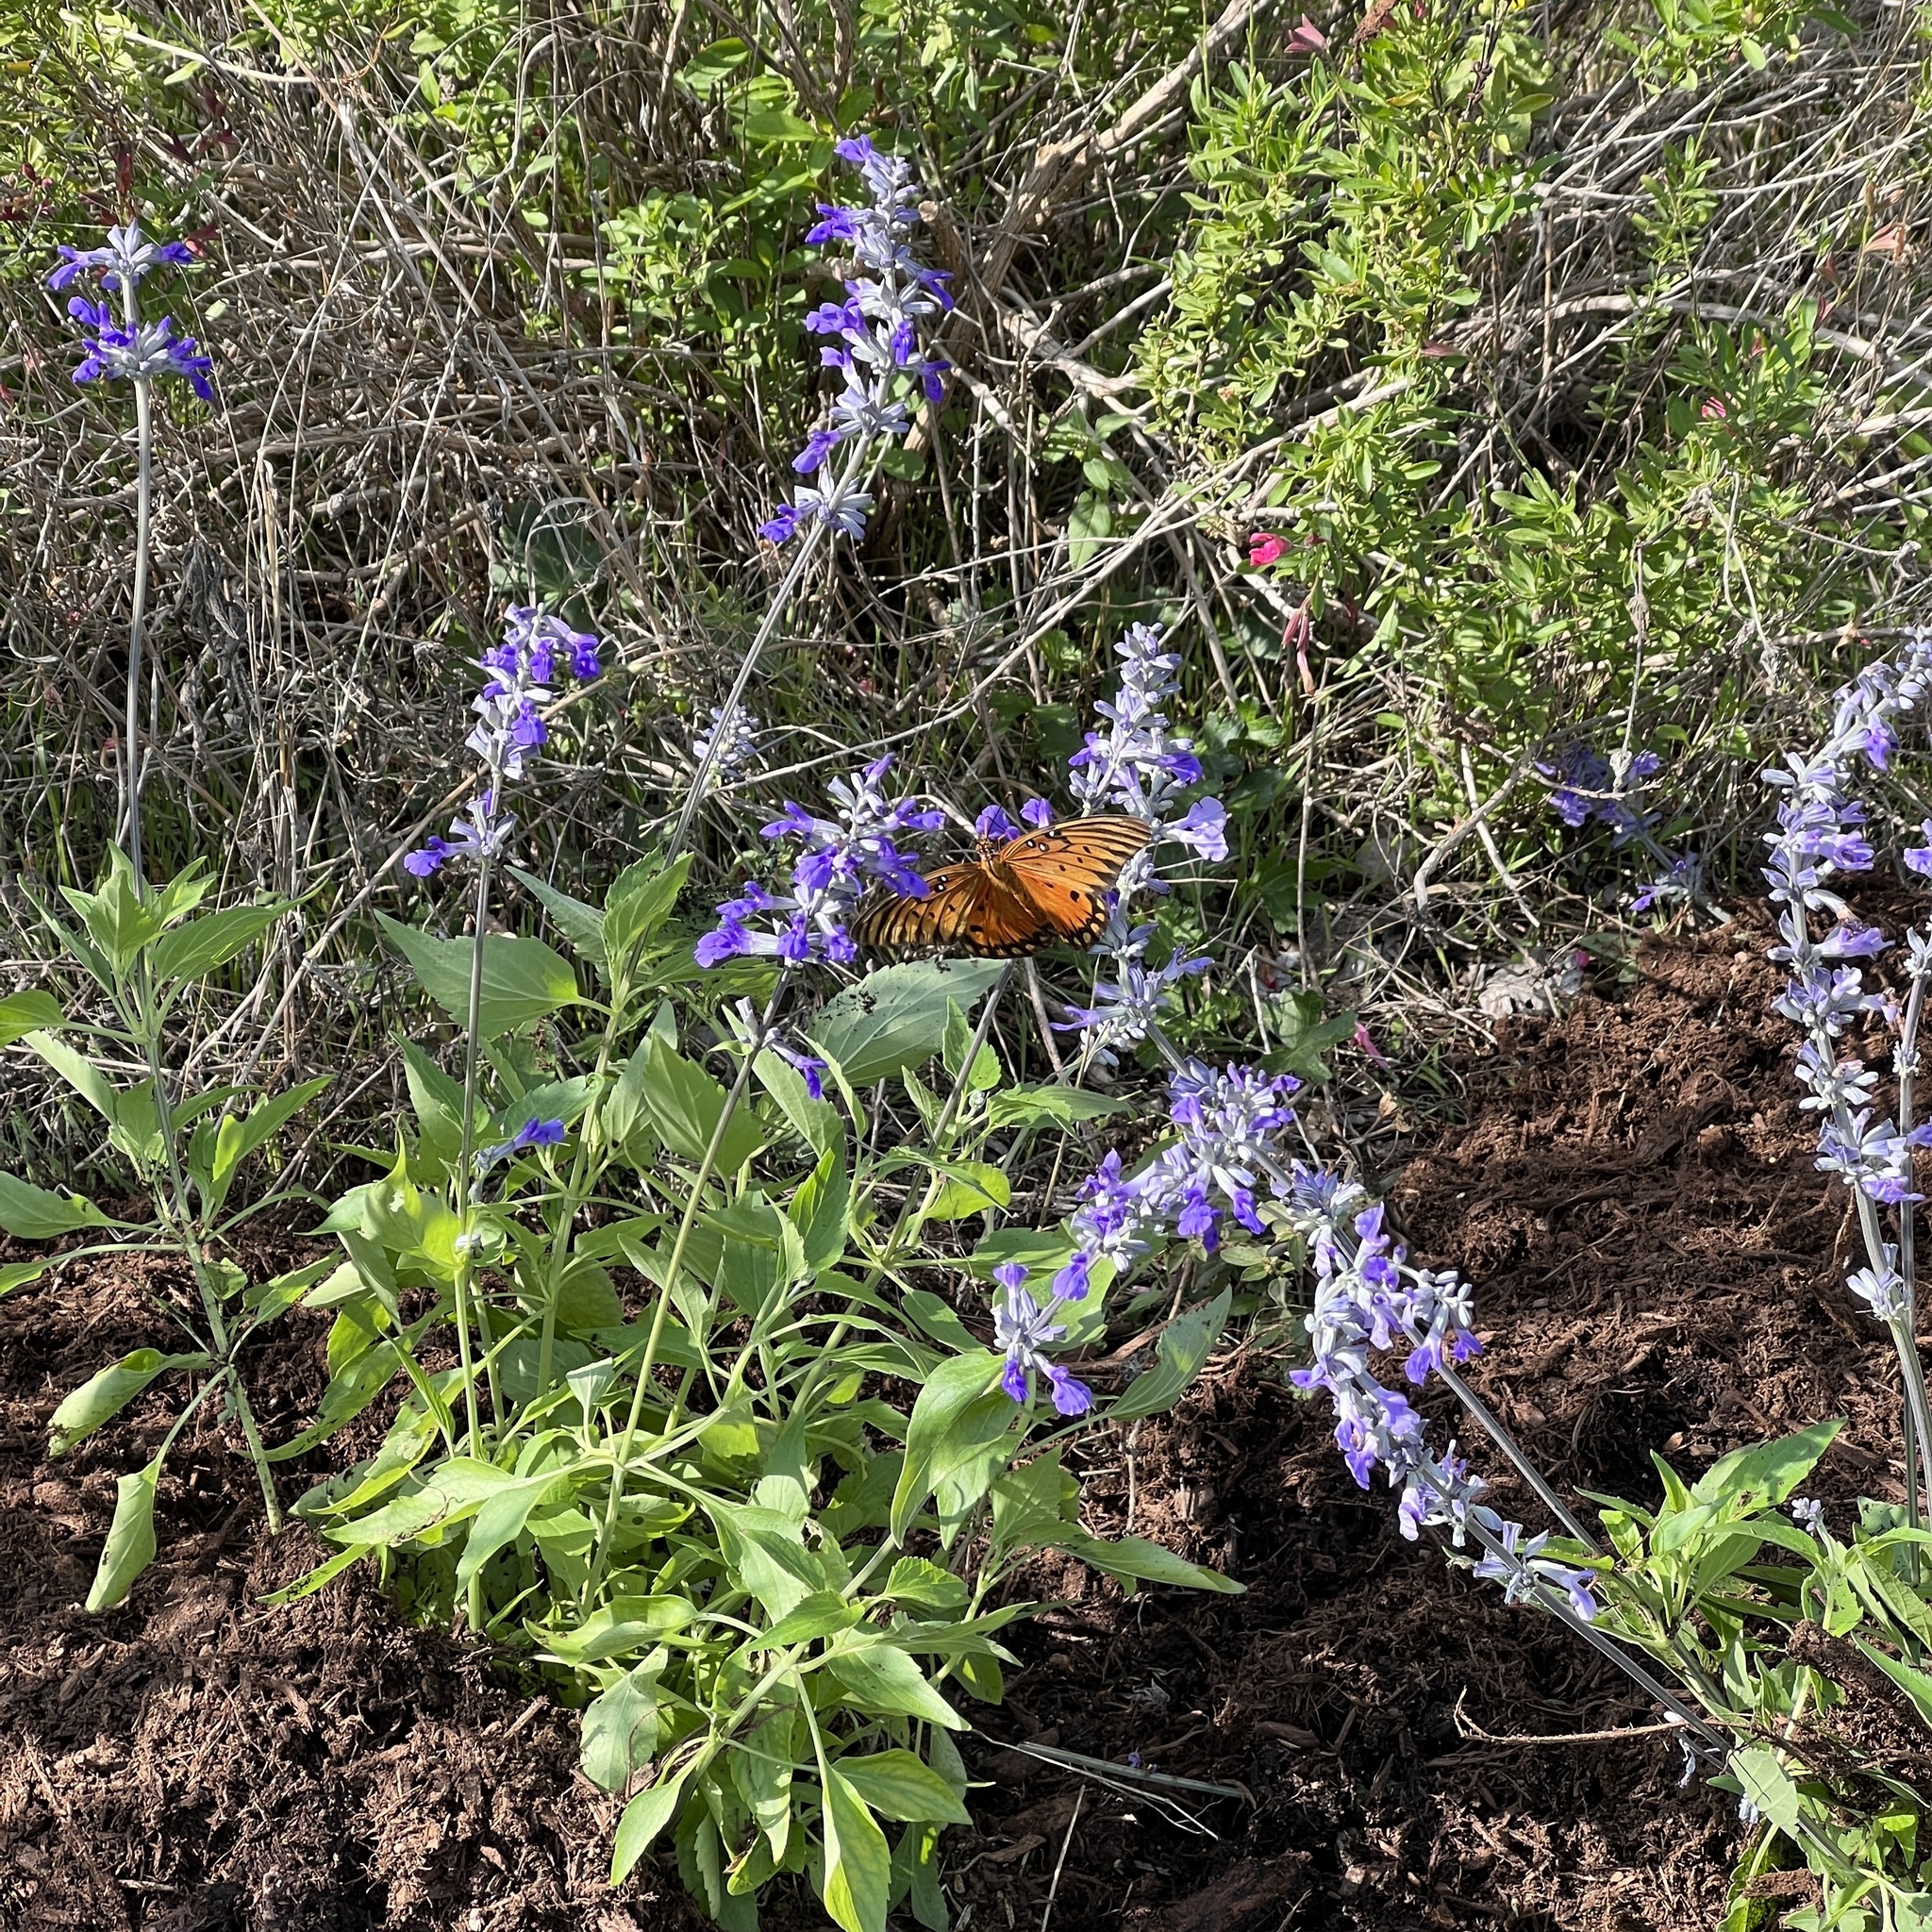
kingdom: Animalia
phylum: Arthropoda
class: Insecta
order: Lepidoptera
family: Nymphalidae
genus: Dione
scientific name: Dione vanillae
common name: Gulf fritillary
